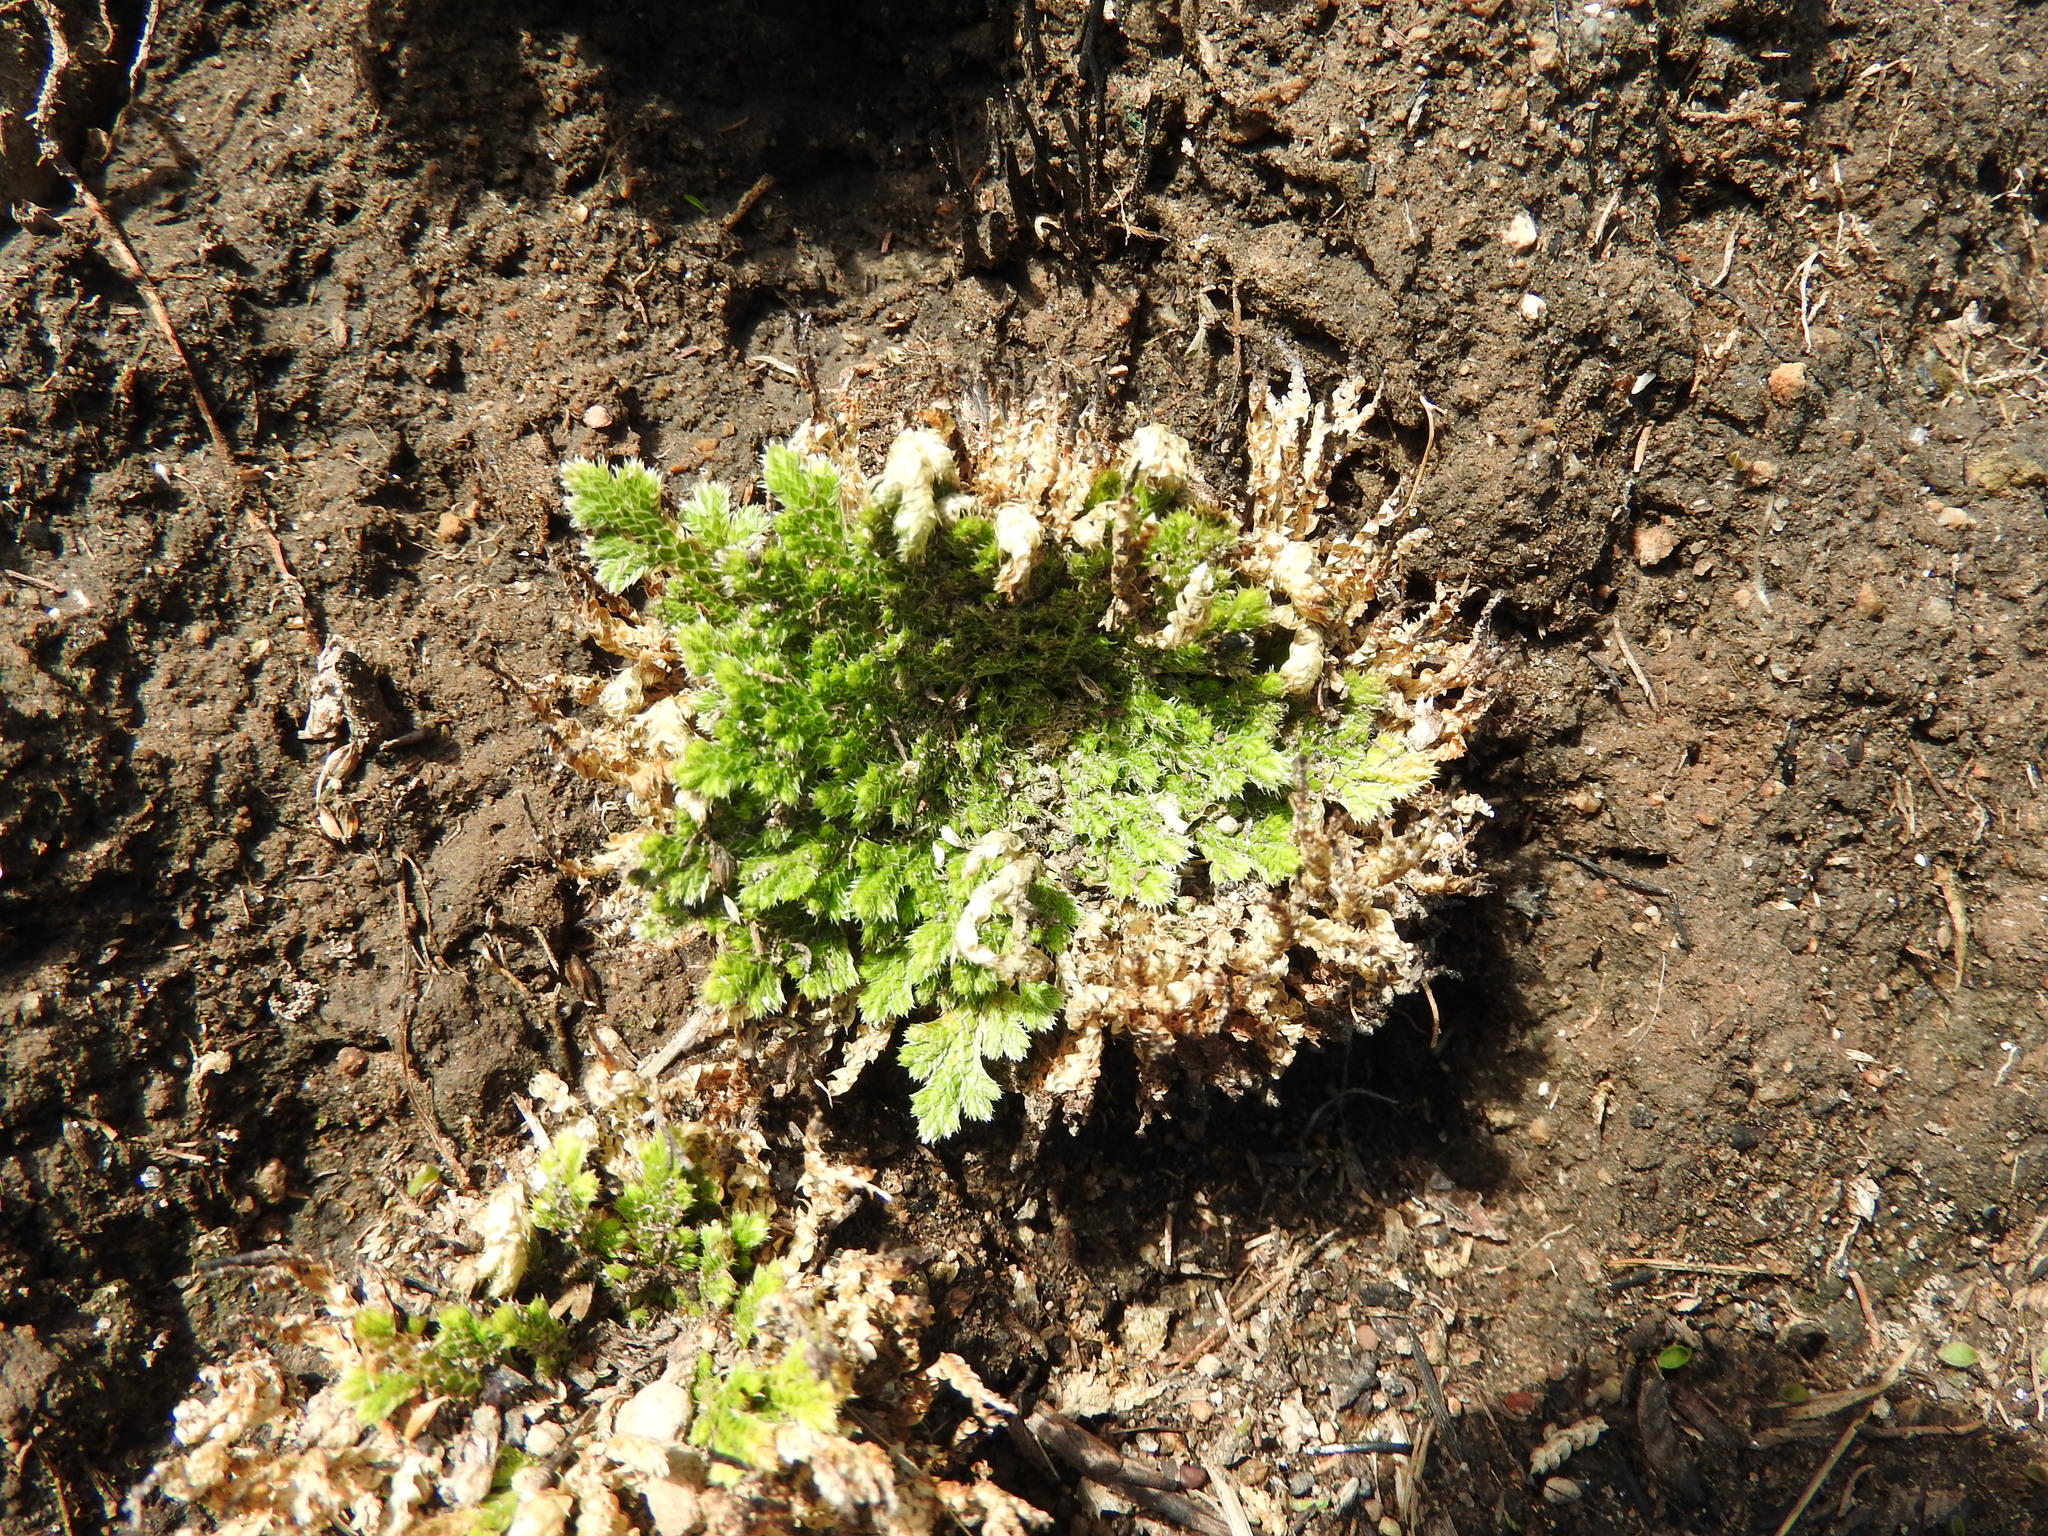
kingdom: Plantae
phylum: Tracheophyta
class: Lycopodiopsida
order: Selaginellales
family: Selaginellaceae
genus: Selaginella
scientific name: Selaginella pallescens
